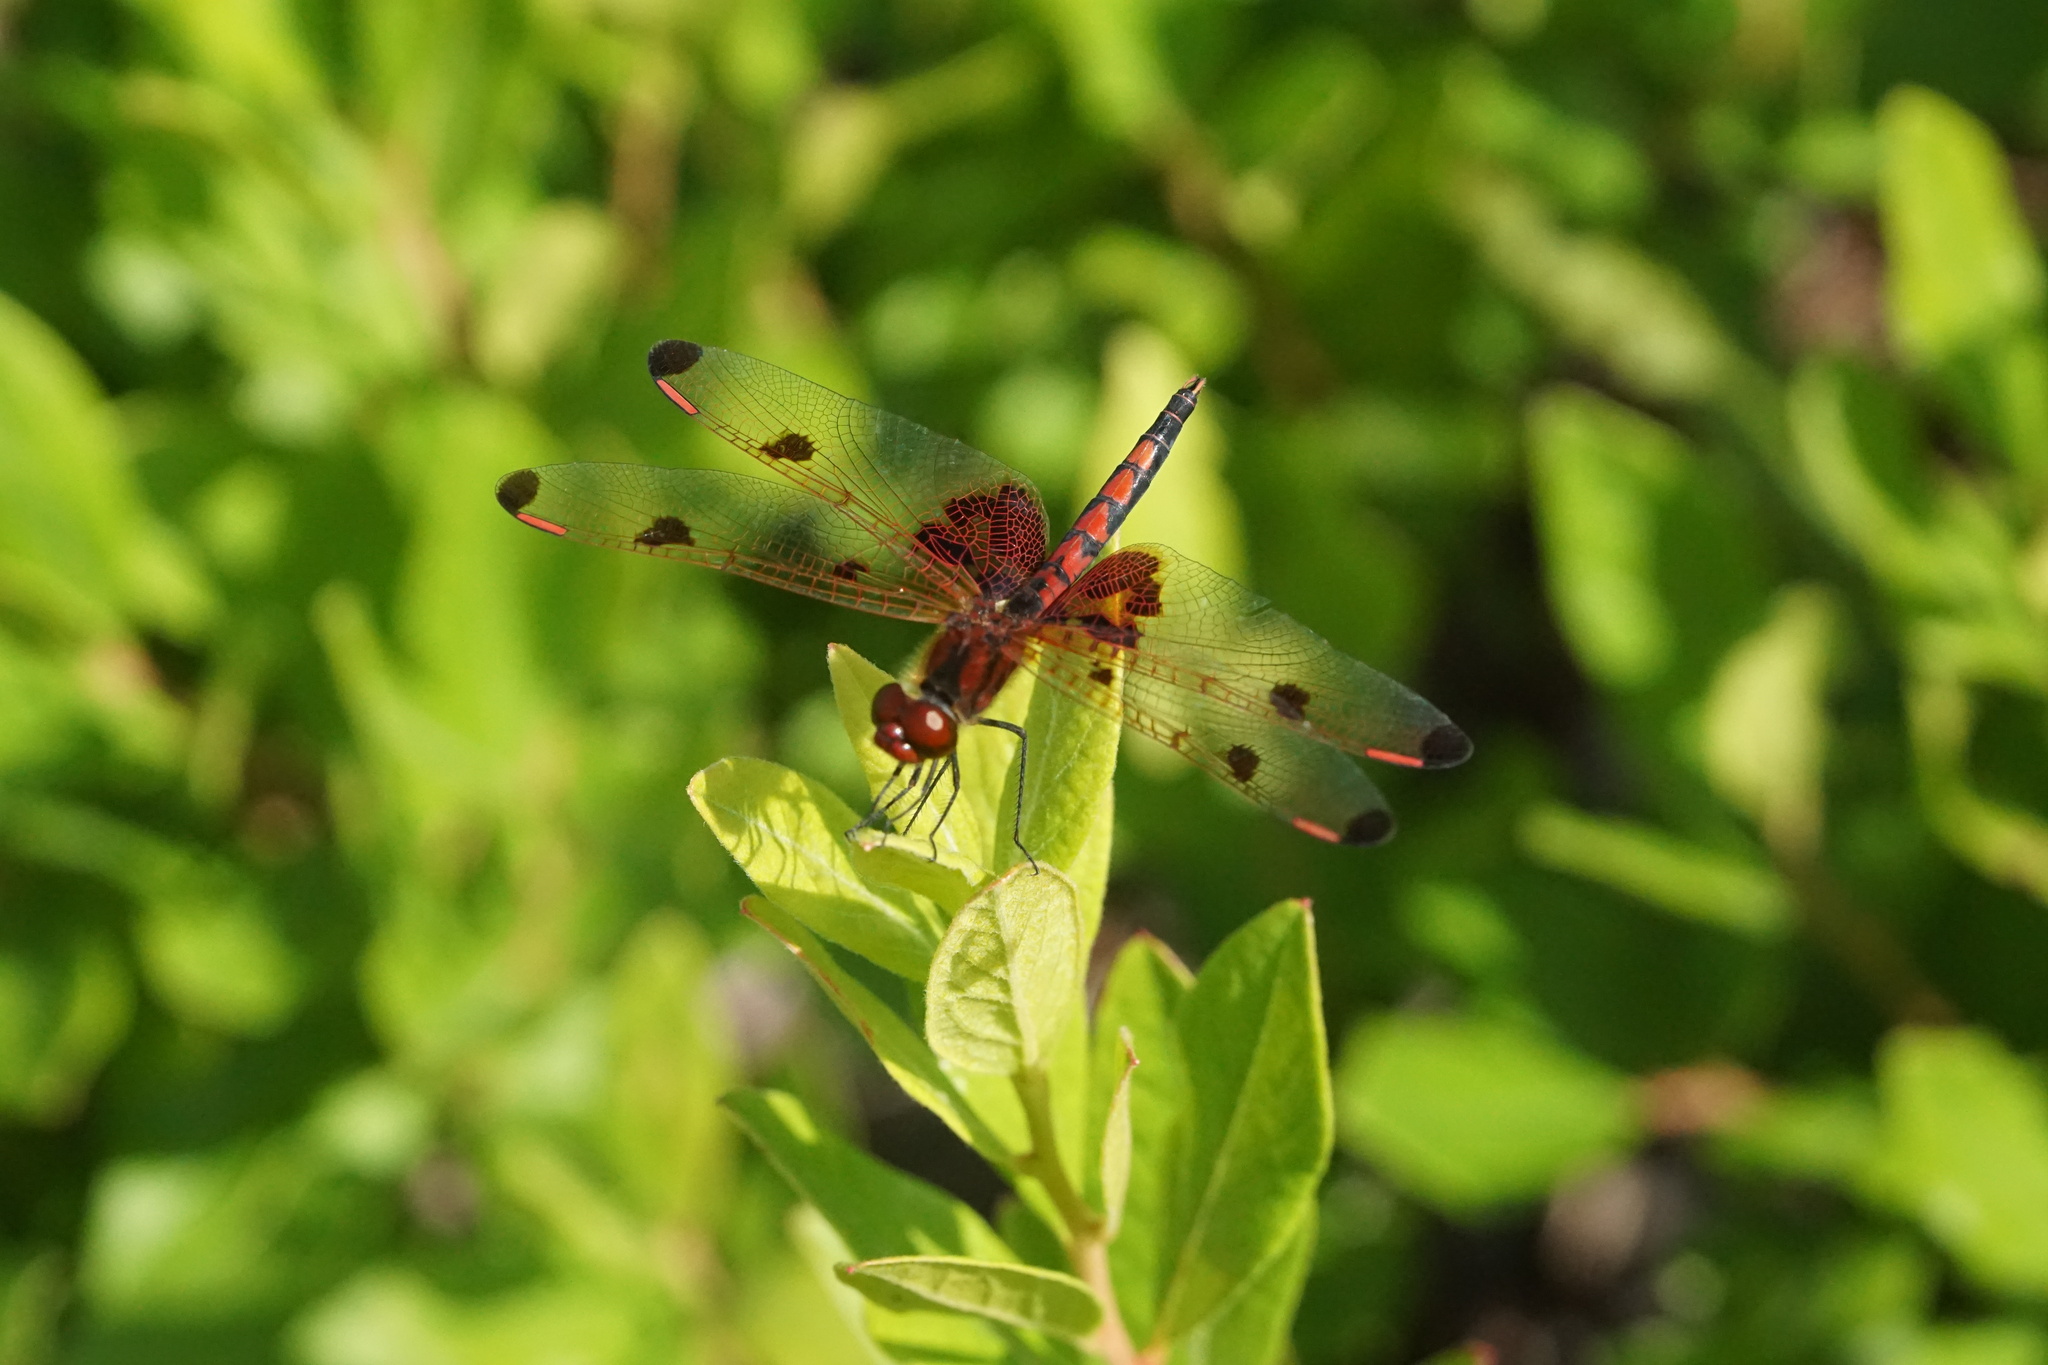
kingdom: Animalia
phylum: Arthropoda
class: Insecta
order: Odonata
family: Libellulidae
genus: Celithemis
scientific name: Celithemis elisa
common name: Calico pennant
